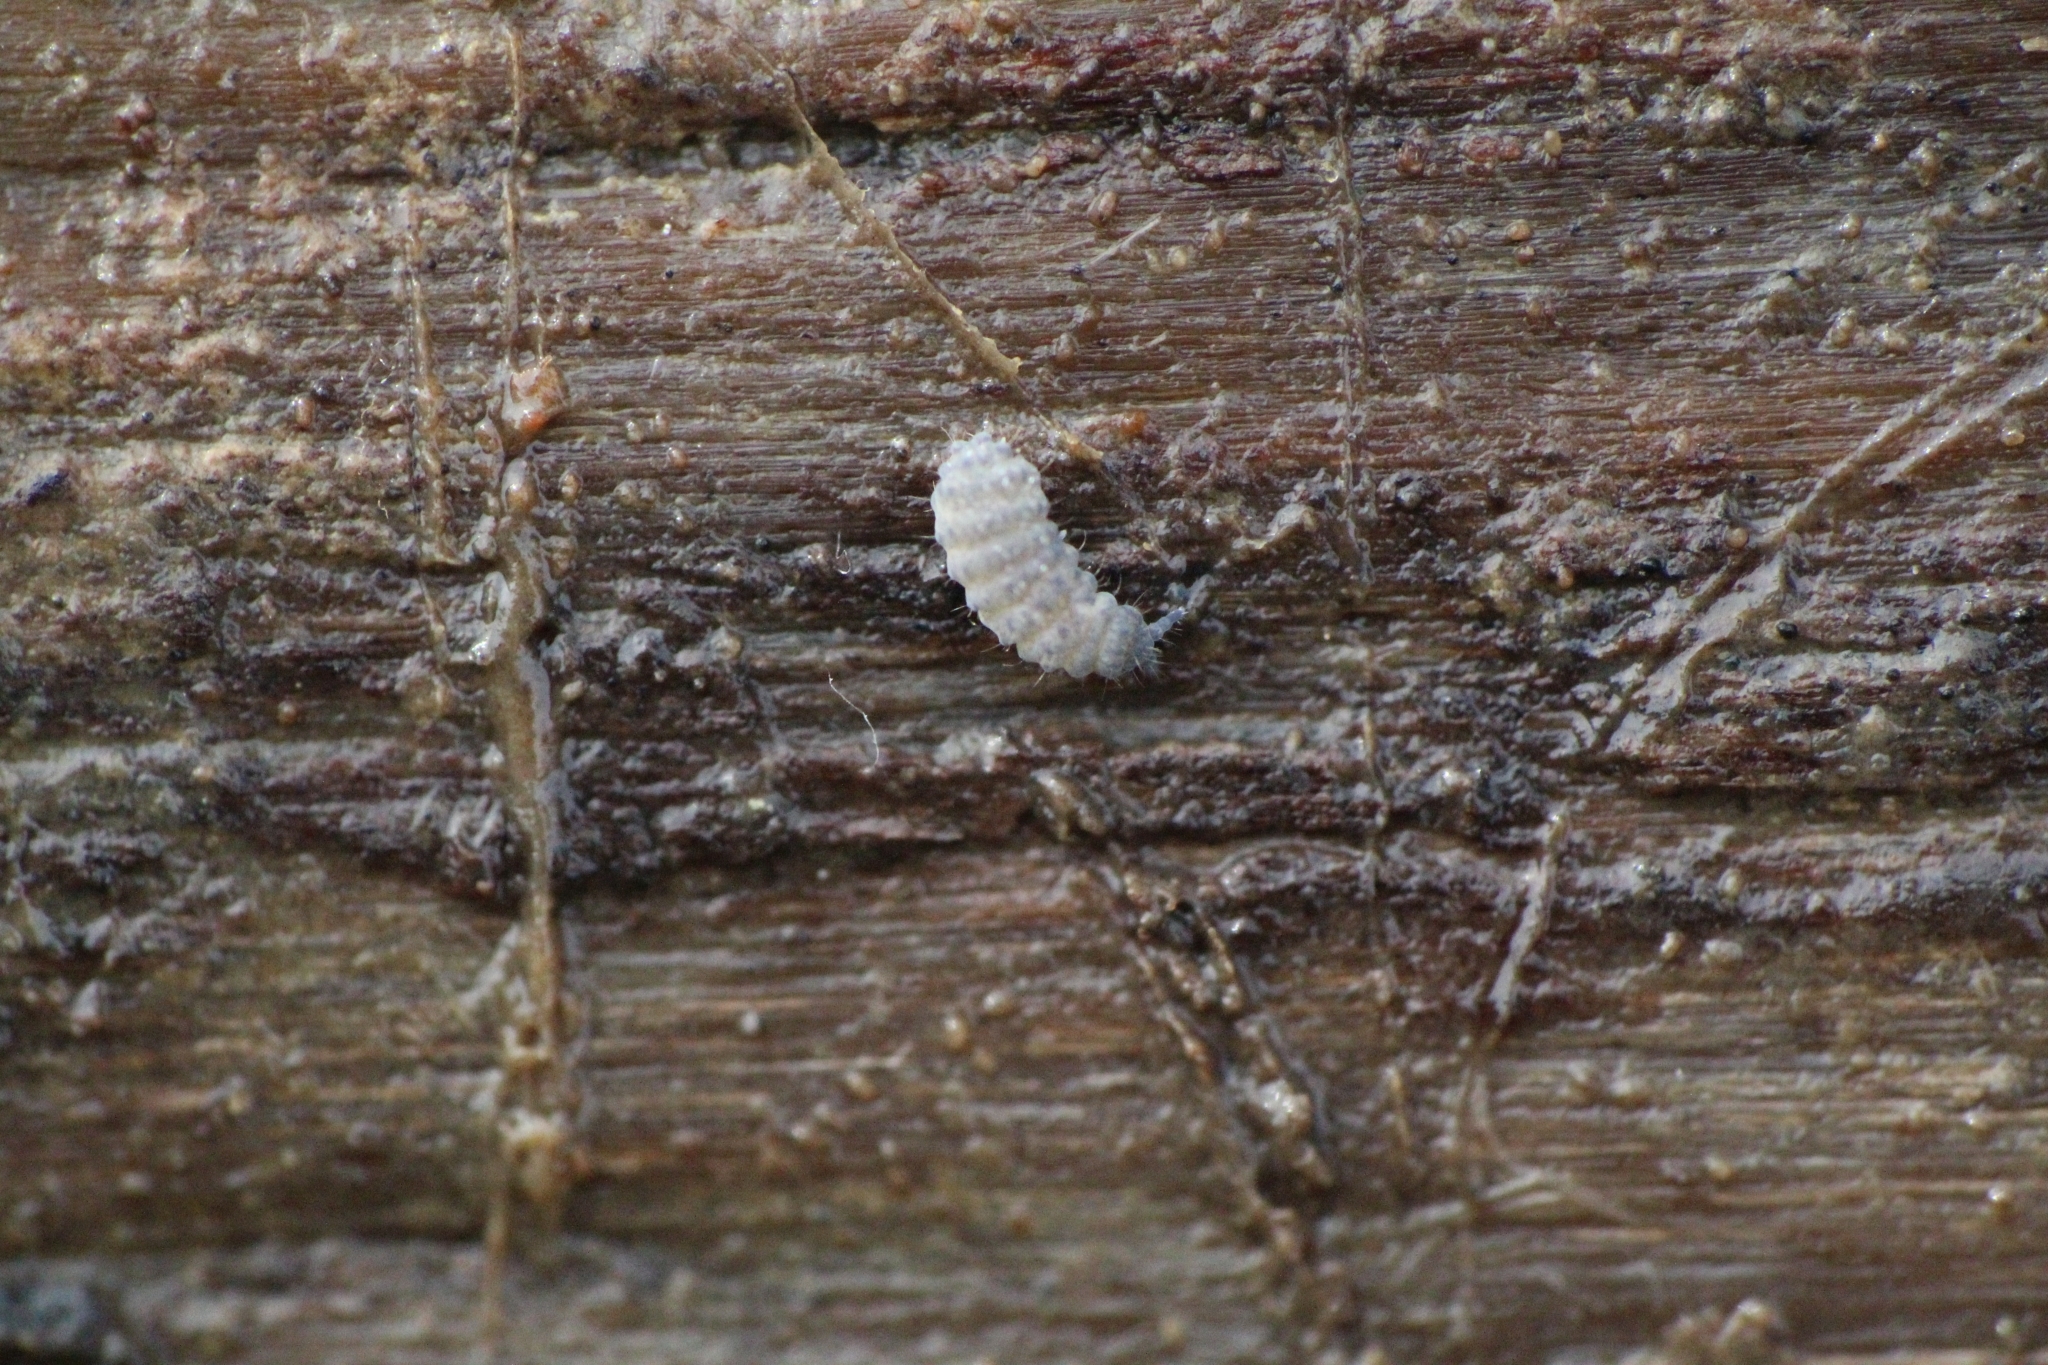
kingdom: Animalia
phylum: Arthropoda
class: Collembola
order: Poduromorpha
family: Neanuridae
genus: Neanura
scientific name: Neanura muscorum
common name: Springtail
